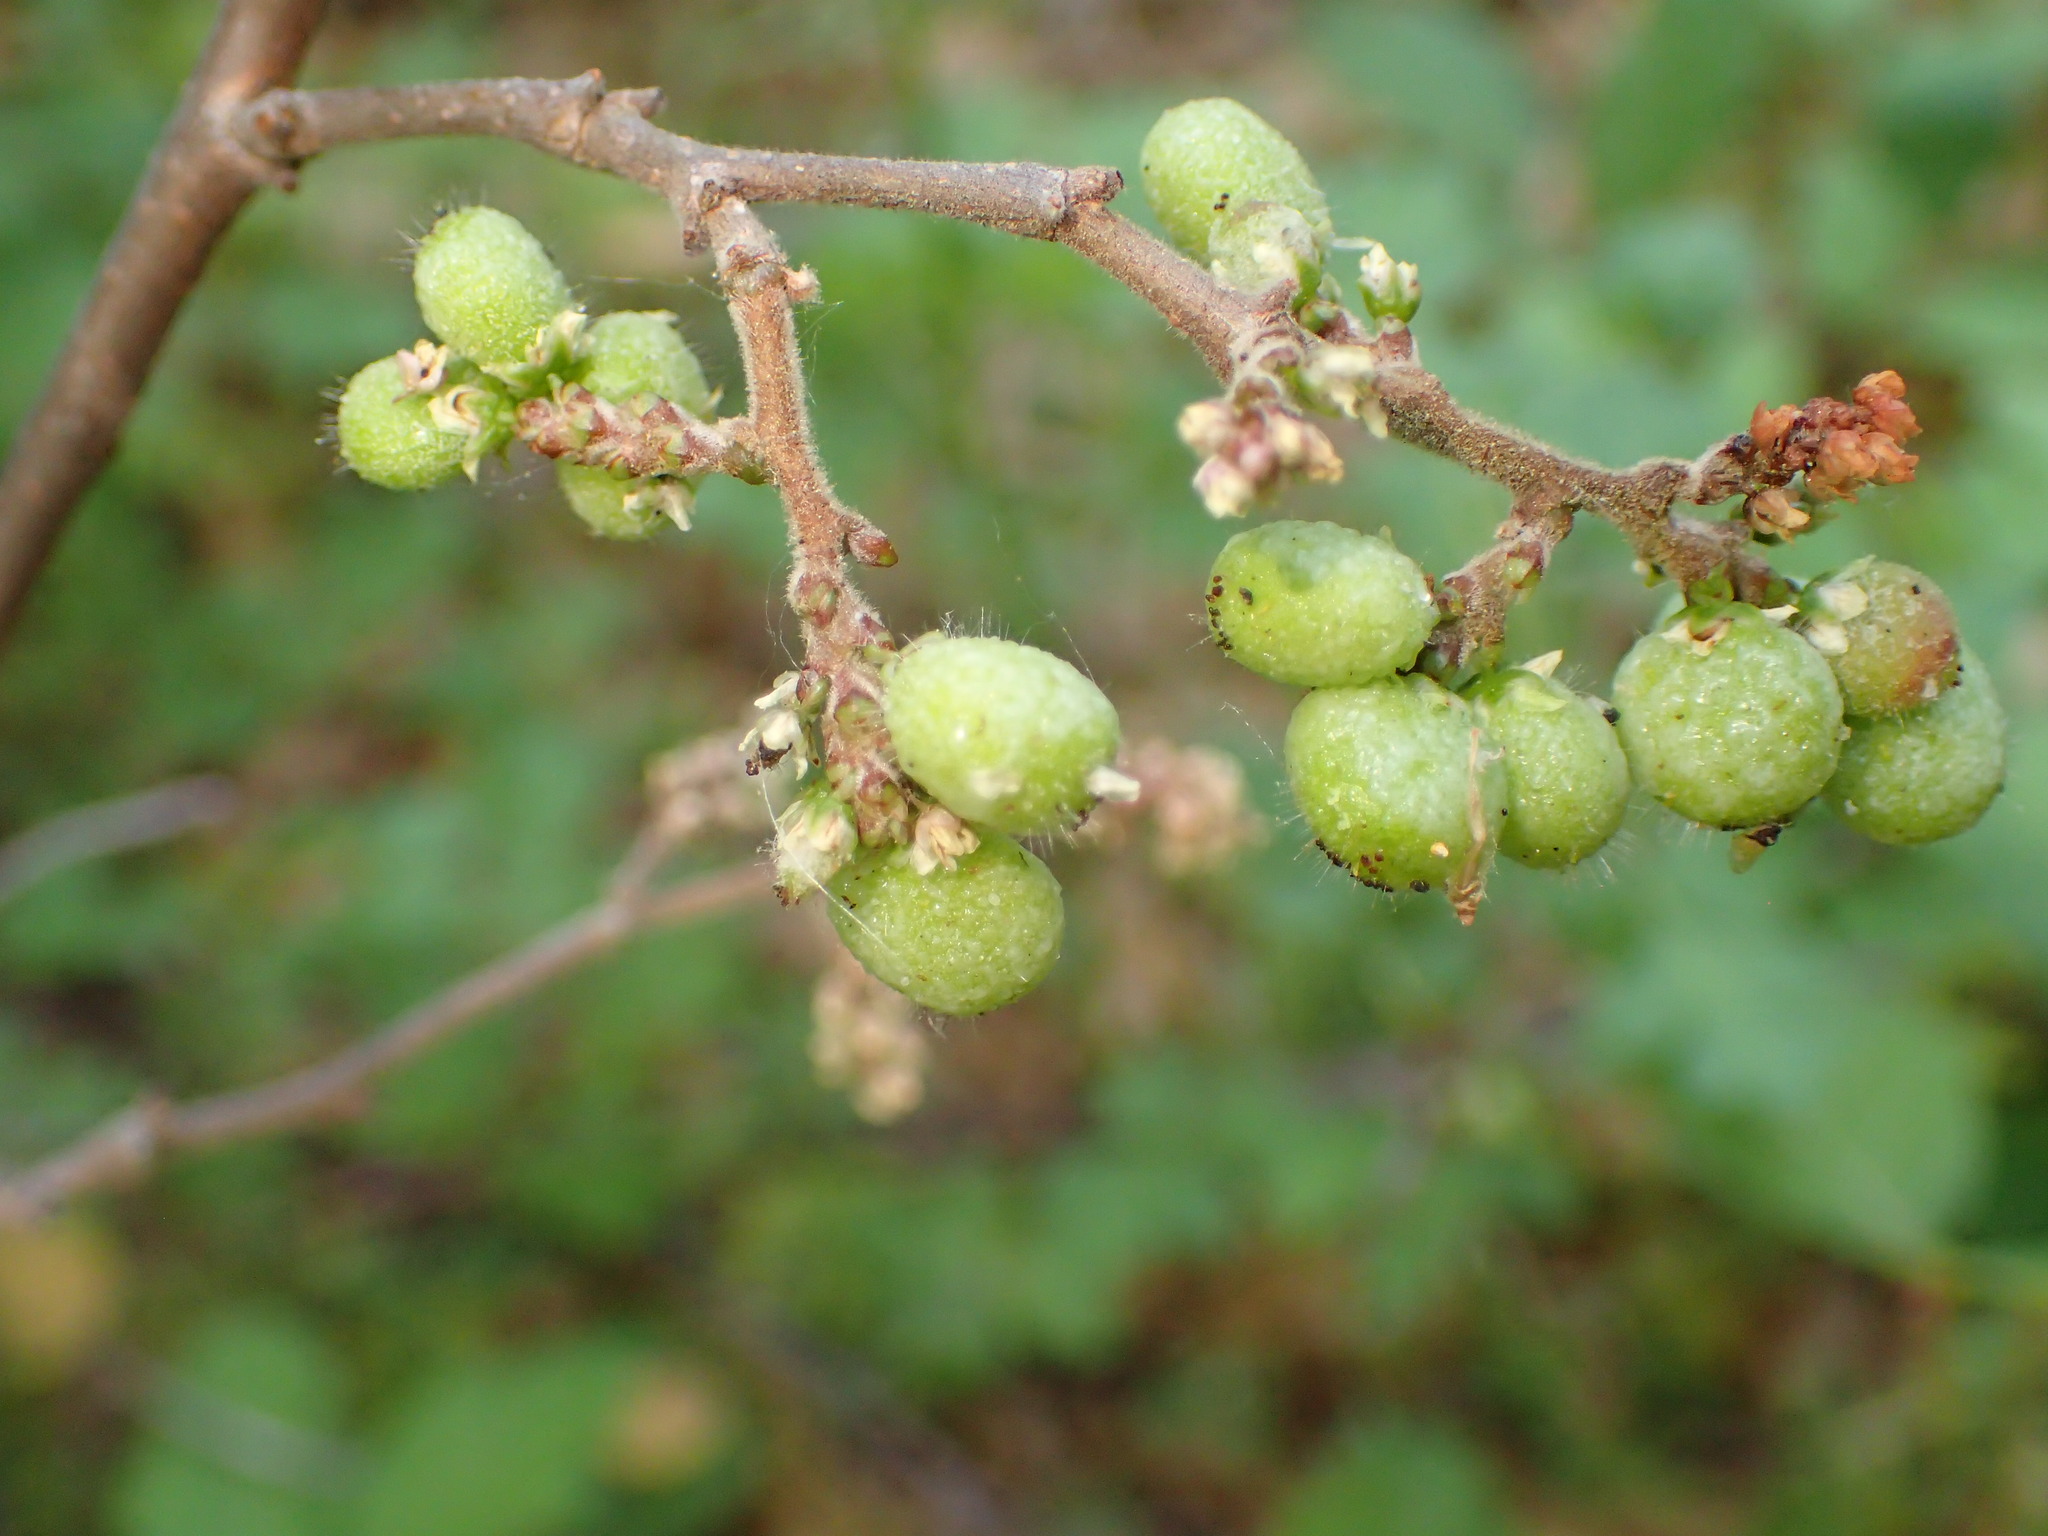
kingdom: Plantae
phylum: Tracheophyta
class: Magnoliopsida
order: Sapindales
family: Anacardiaceae
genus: Rhus
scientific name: Rhus aromatica
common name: Aromatic sumac
